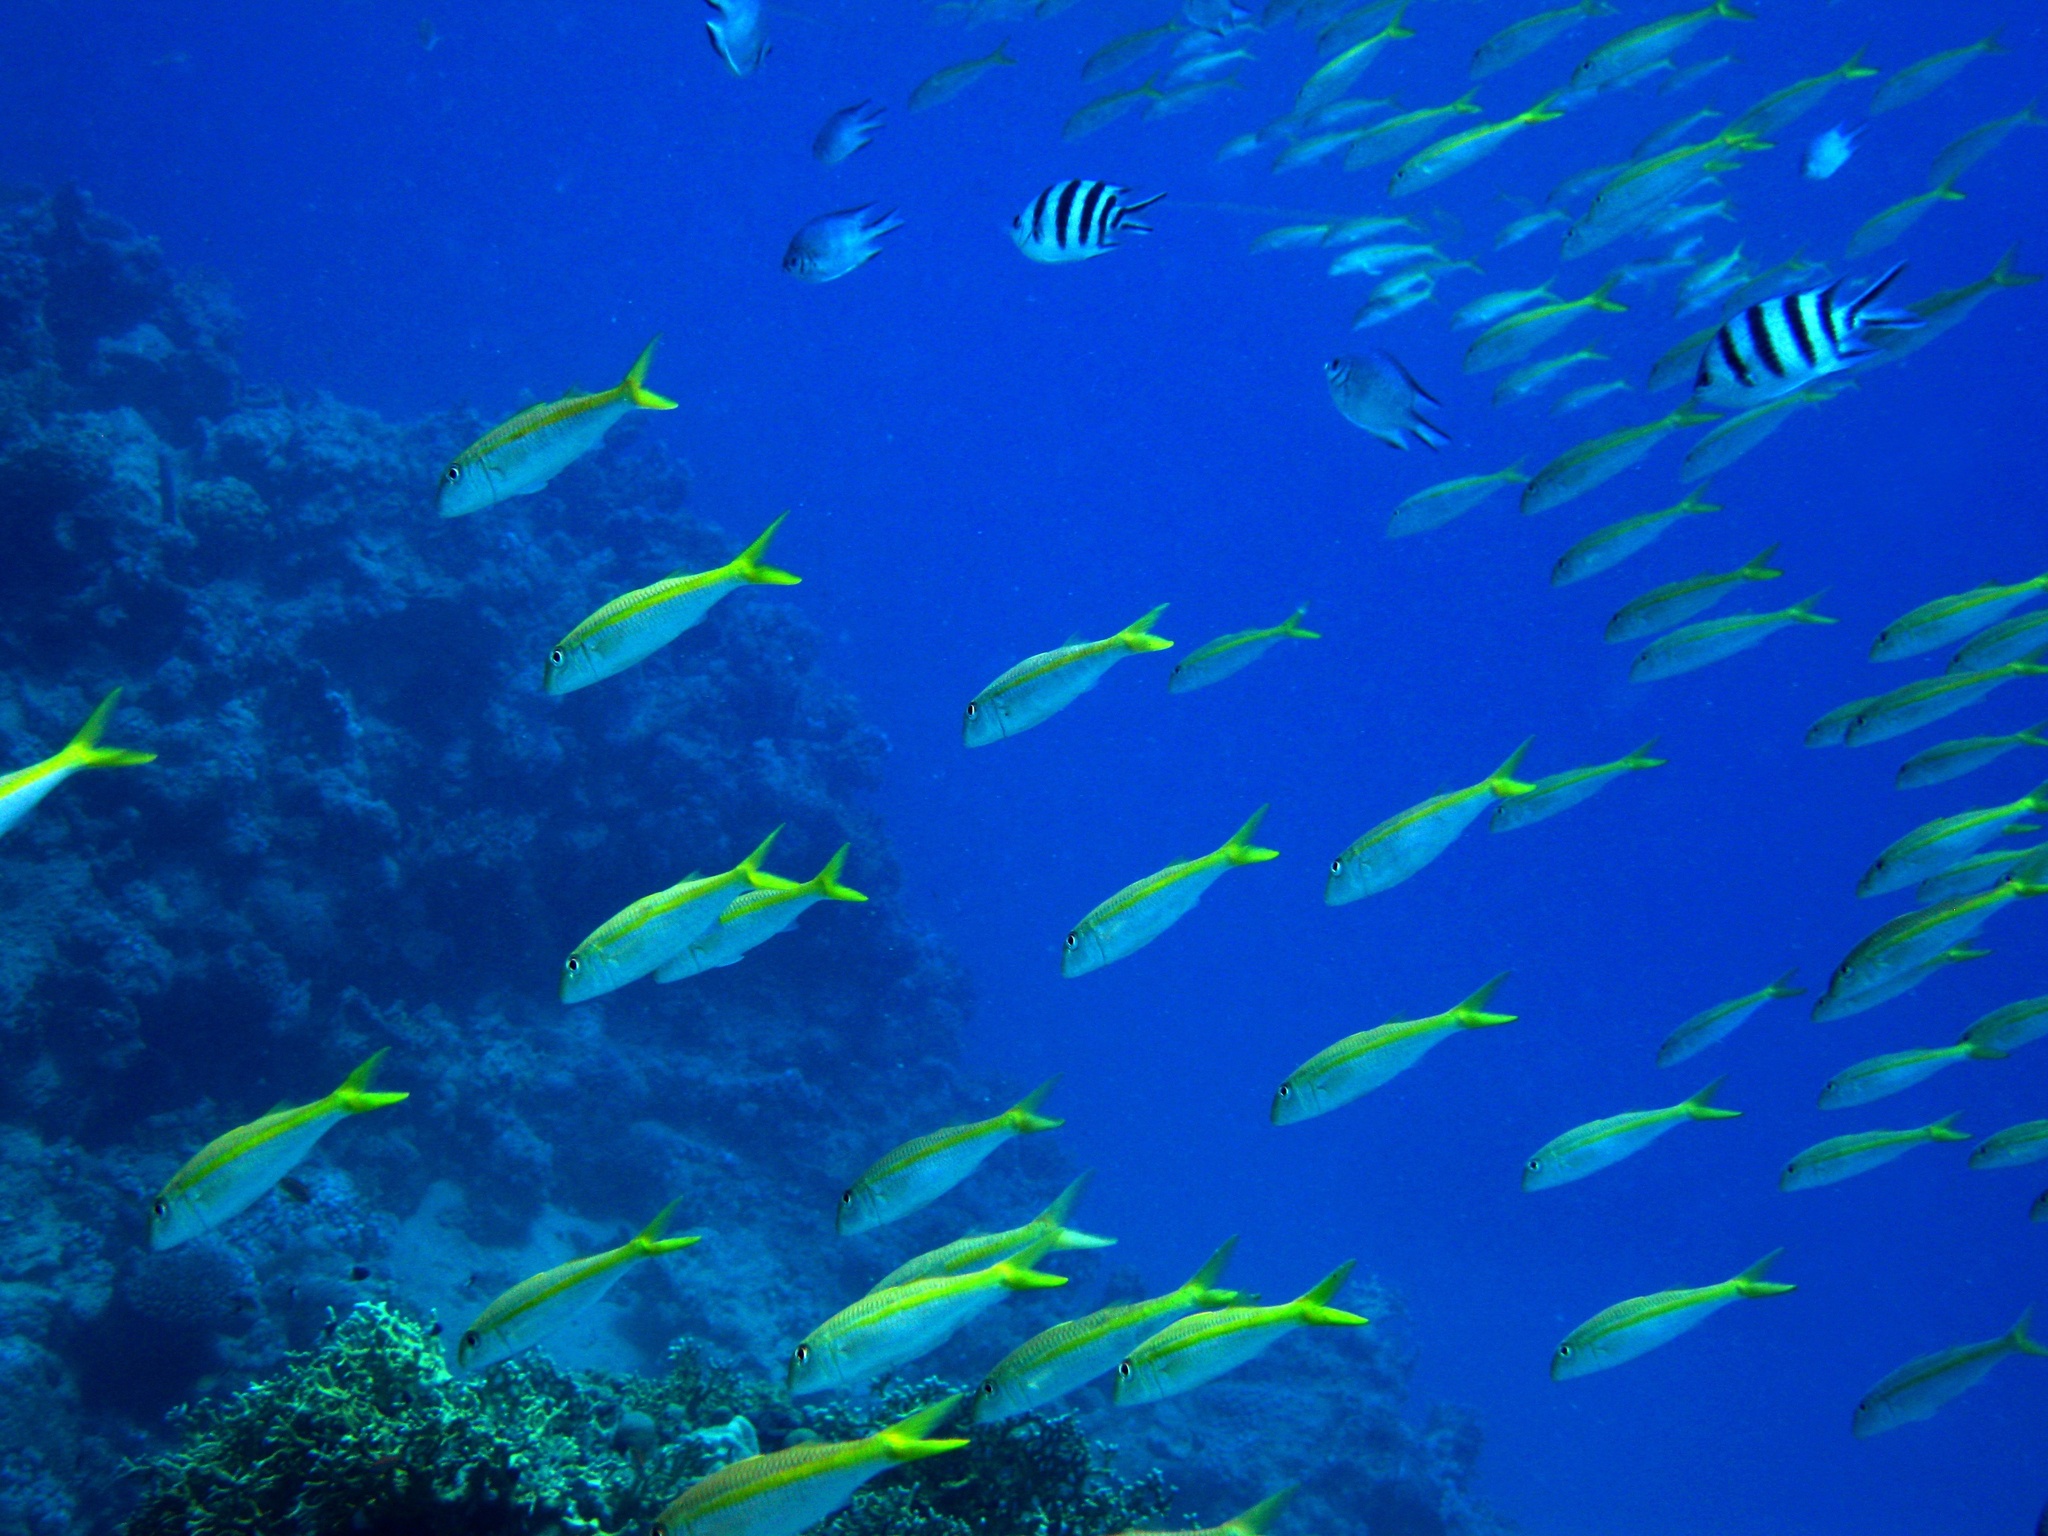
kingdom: Animalia
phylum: Chordata
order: Perciformes
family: Mullidae
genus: Mulloidichthys
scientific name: Mulloidichthys vanicolensis
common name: Yellowfin goatfish
